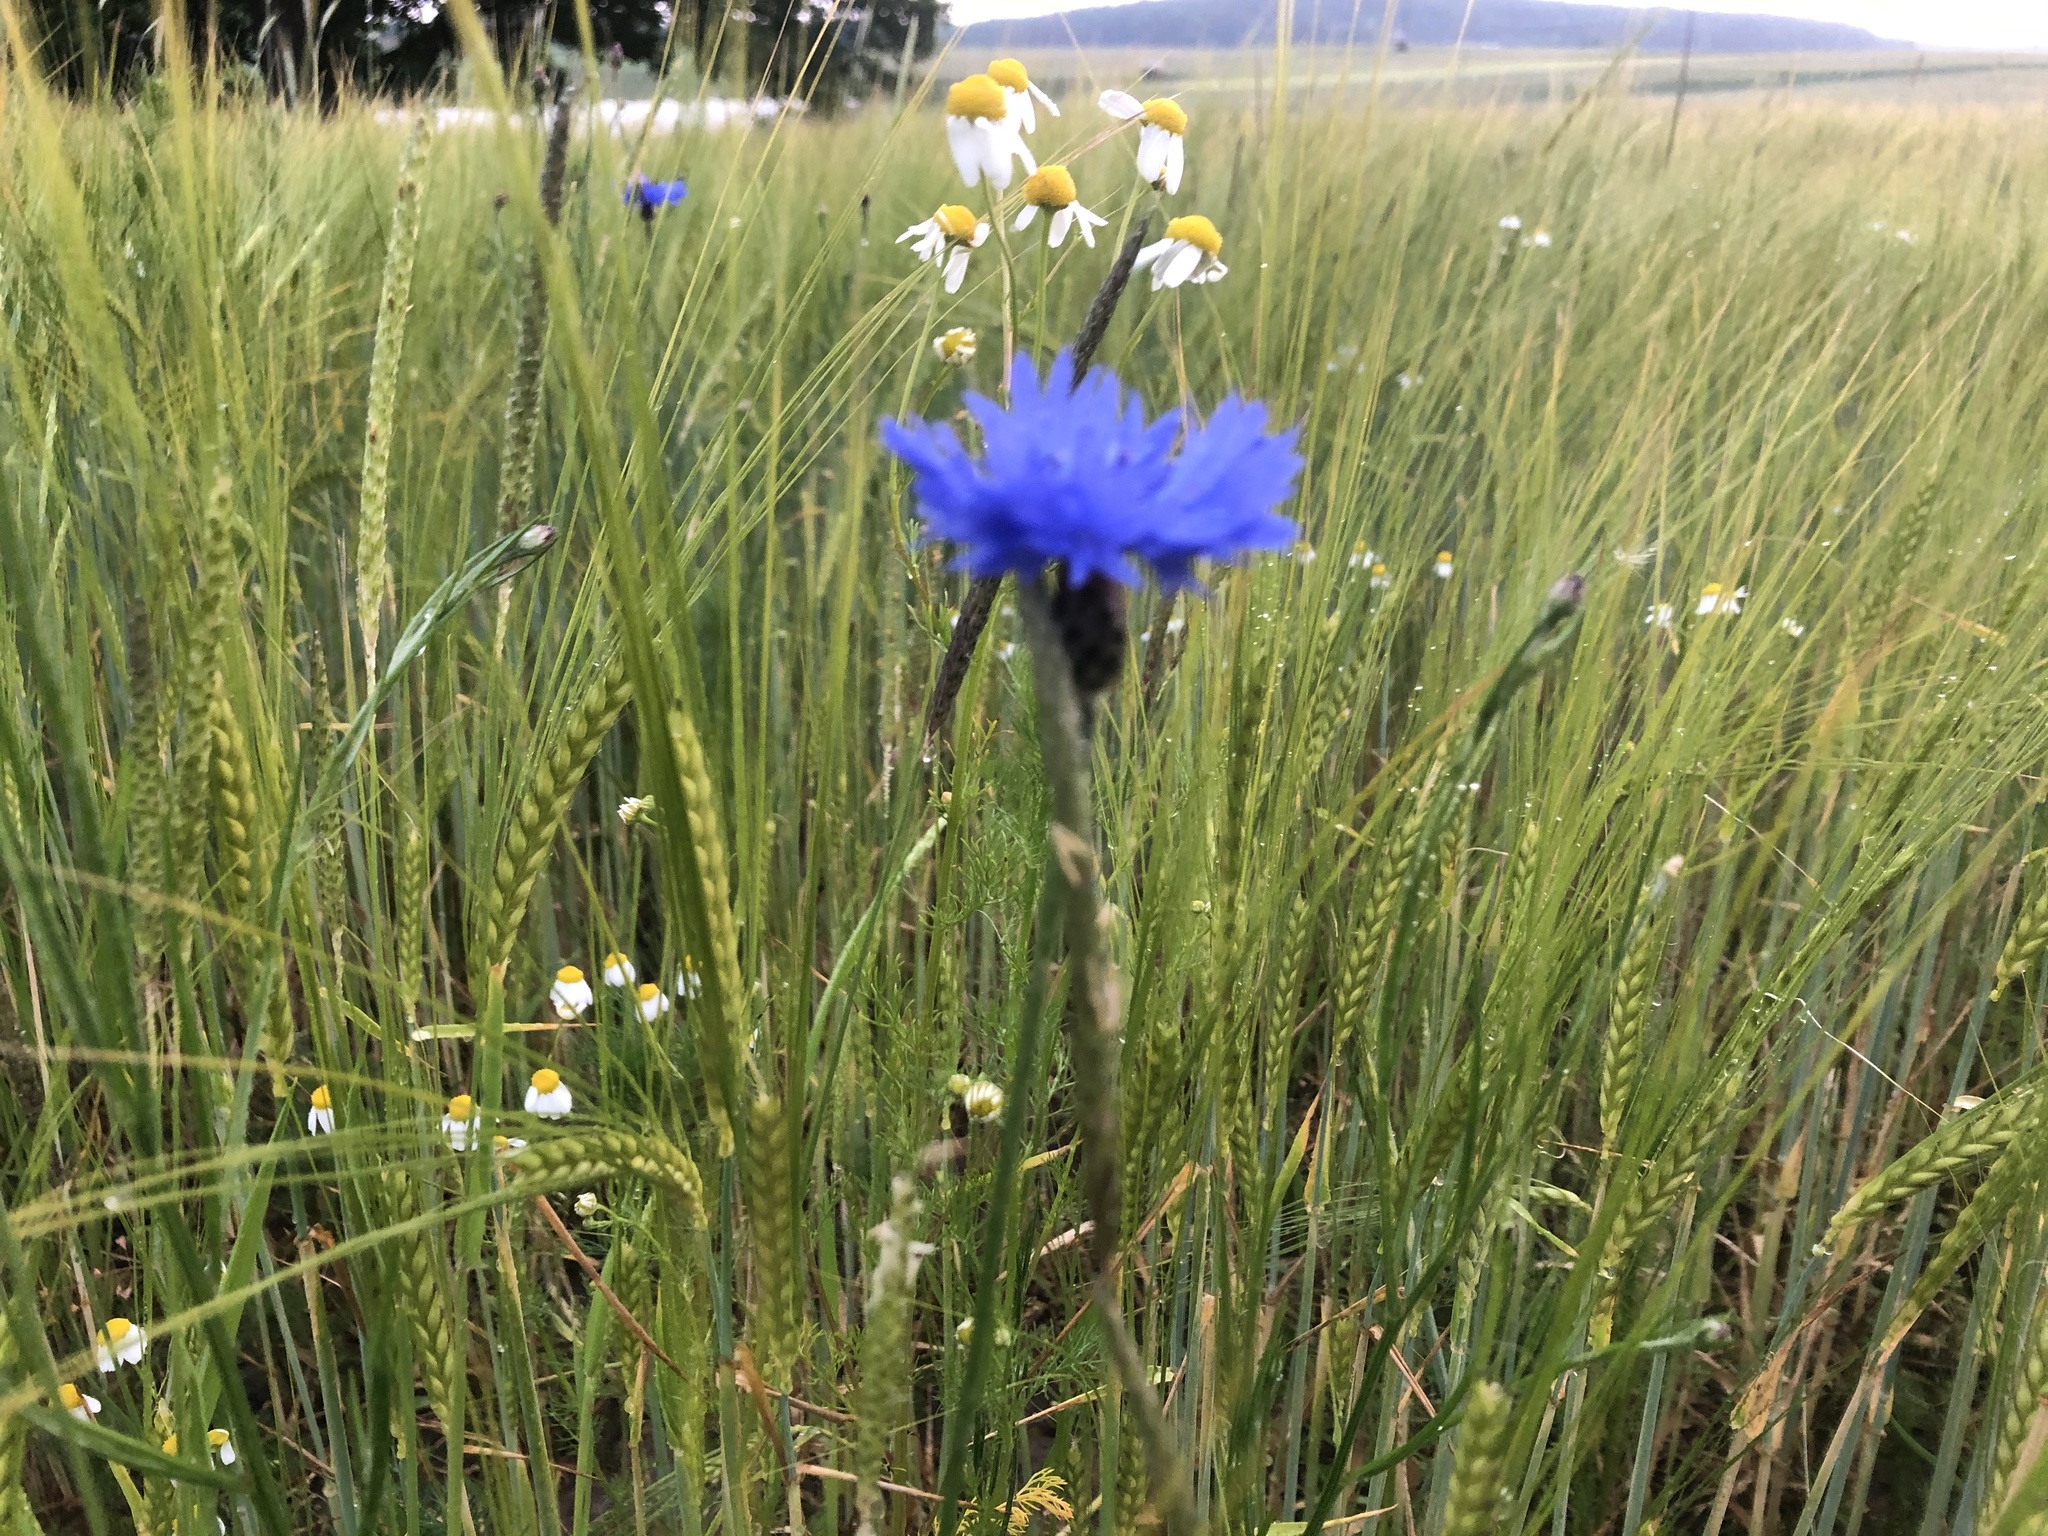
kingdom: Plantae
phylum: Tracheophyta
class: Magnoliopsida
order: Asterales
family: Asteraceae
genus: Centaurea
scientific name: Centaurea cyanus
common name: Cornflower
